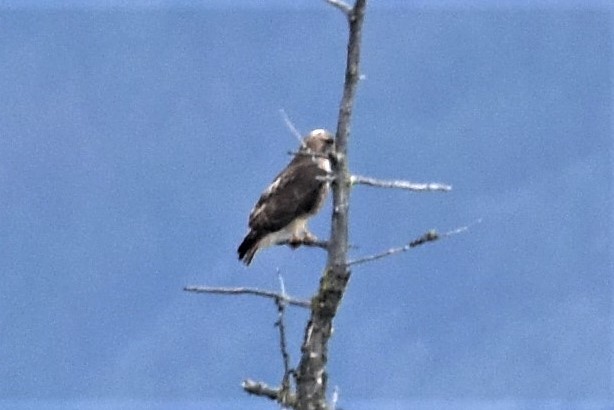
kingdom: Animalia
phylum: Chordata
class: Aves
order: Accipitriformes
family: Accipitridae
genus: Buteo
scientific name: Buteo lagopus
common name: Rough-legged buzzard
